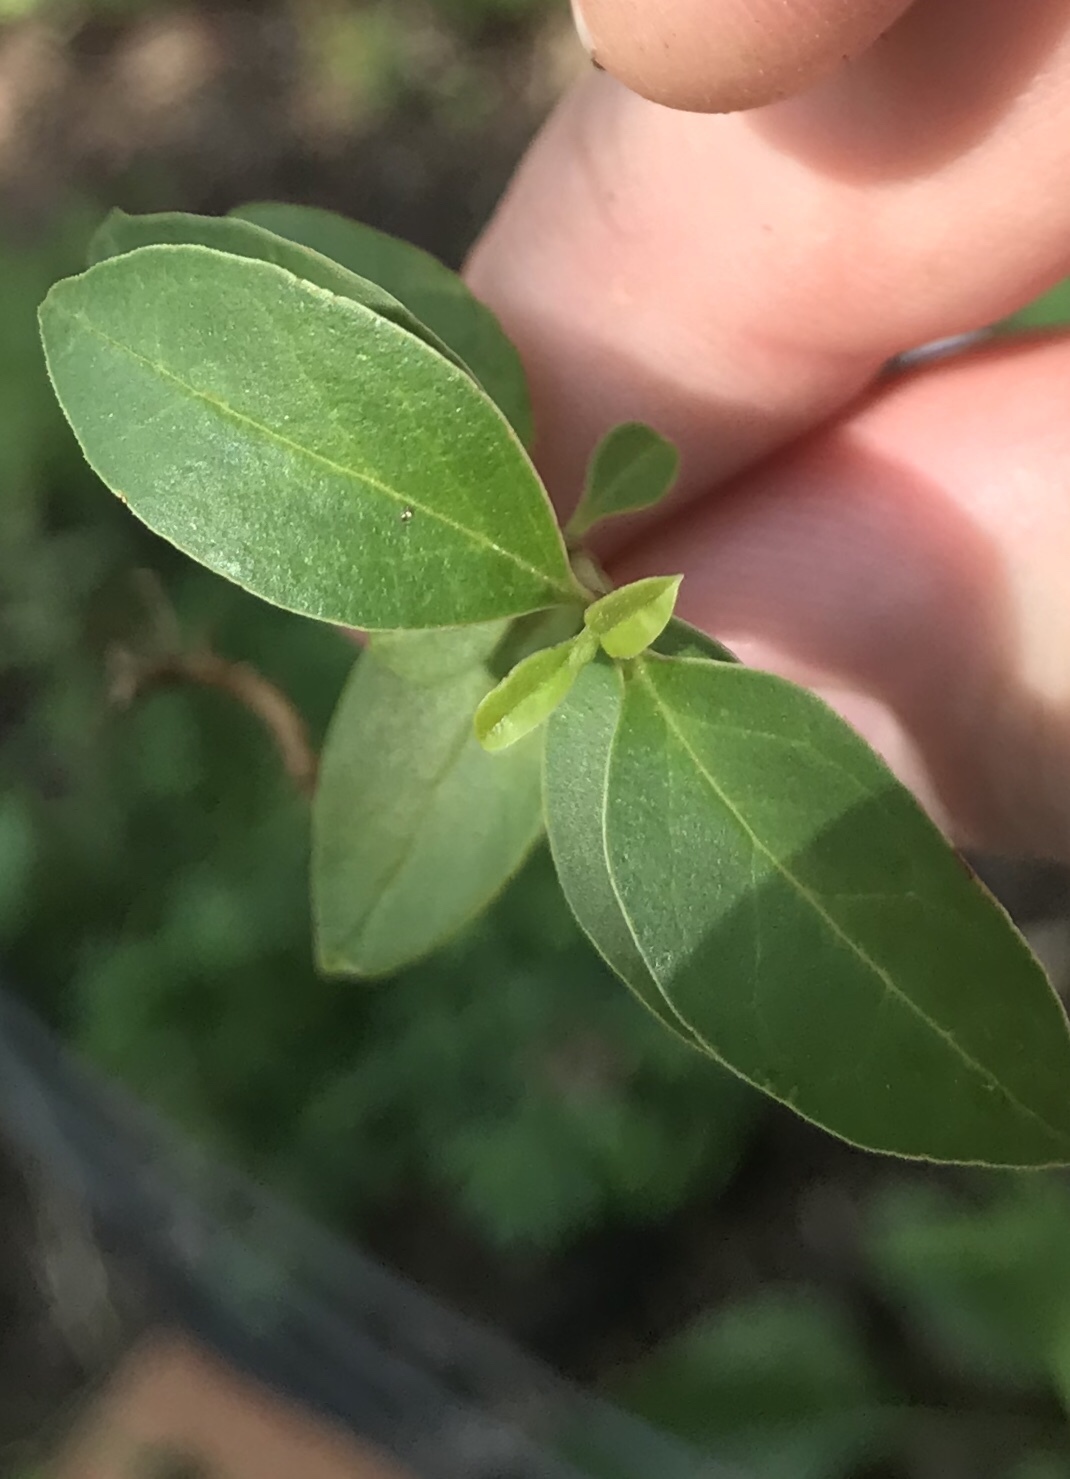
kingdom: Plantae
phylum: Tracheophyta
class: Magnoliopsida
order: Lamiales
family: Oleaceae
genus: Ligustrum
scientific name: Ligustrum sinense
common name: Chinese privet
